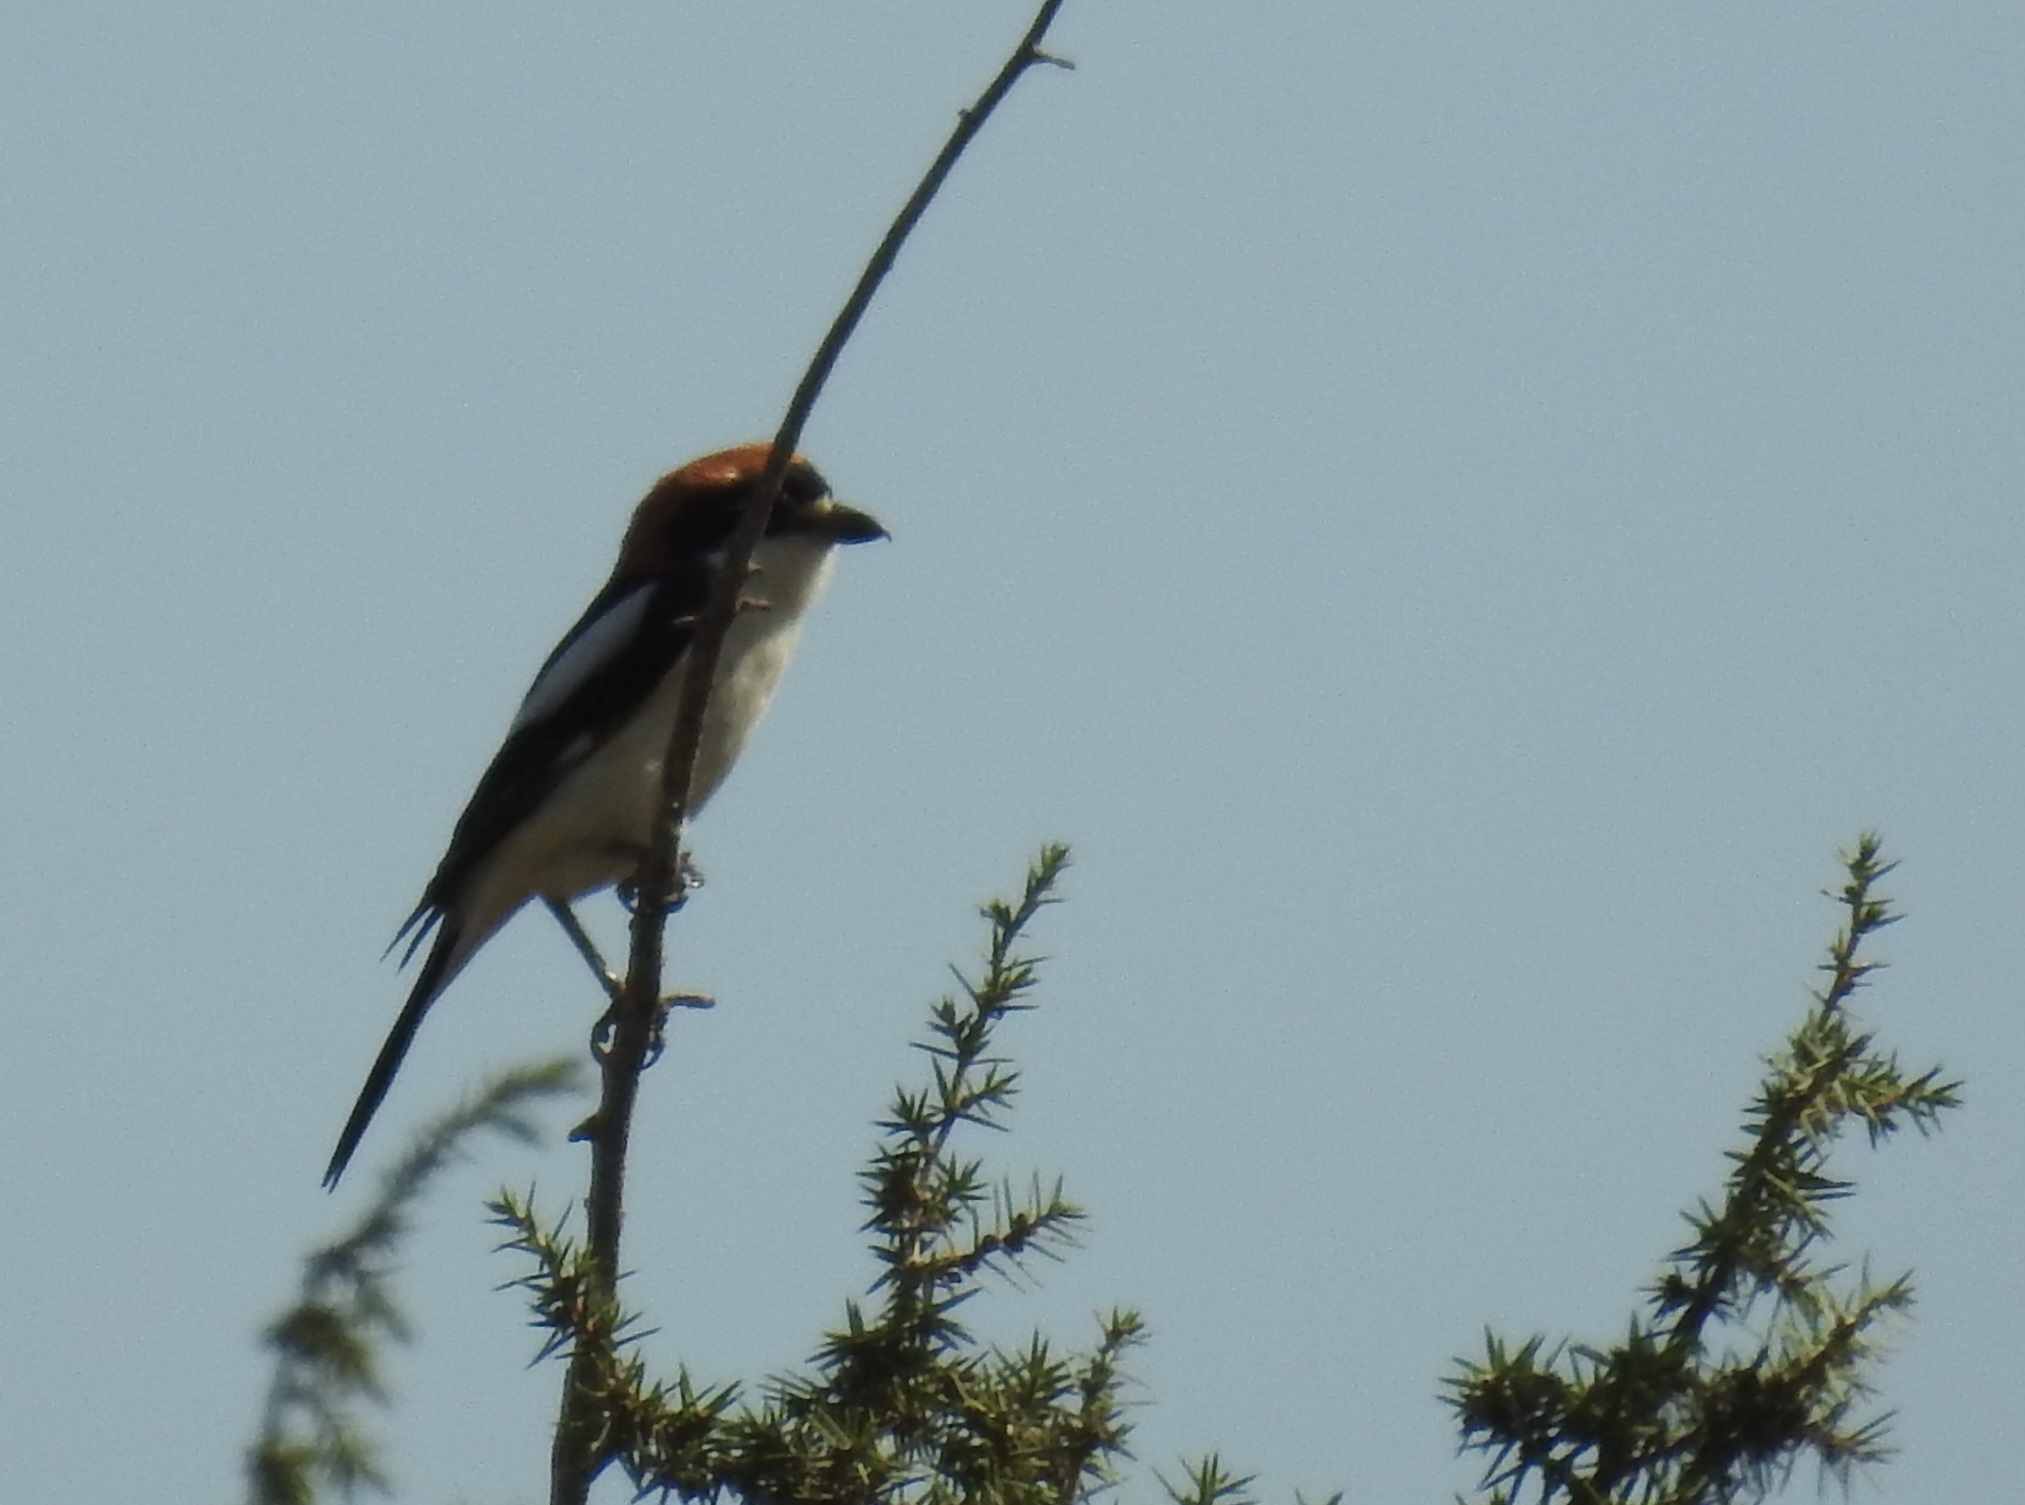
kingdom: Animalia
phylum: Chordata
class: Aves
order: Passeriformes
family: Laniidae
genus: Lanius
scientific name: Lanius senator
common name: Woodchat shrike
